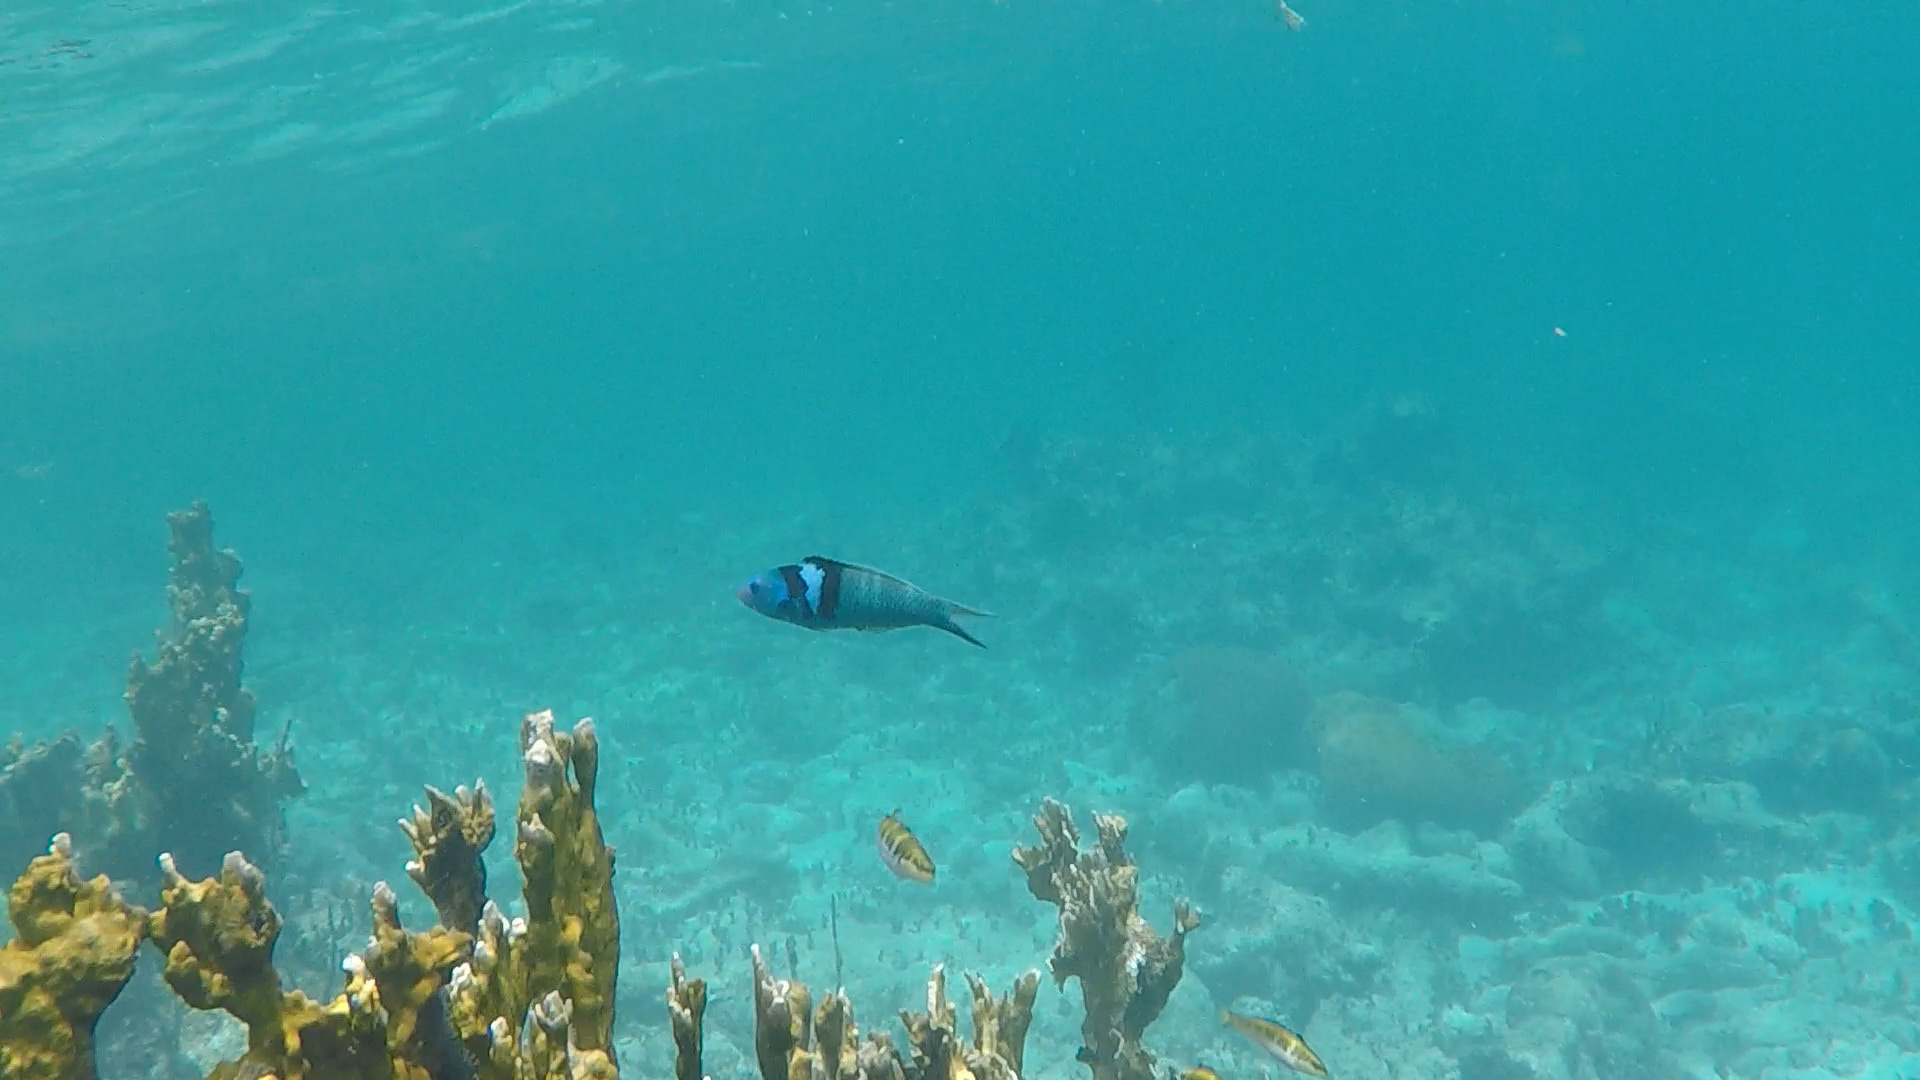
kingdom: Animalia
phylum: Chordata
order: Perciformes
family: Labridae
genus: Thalassoma
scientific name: Thalassoma bifasciatum
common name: Bluehead wrasse
